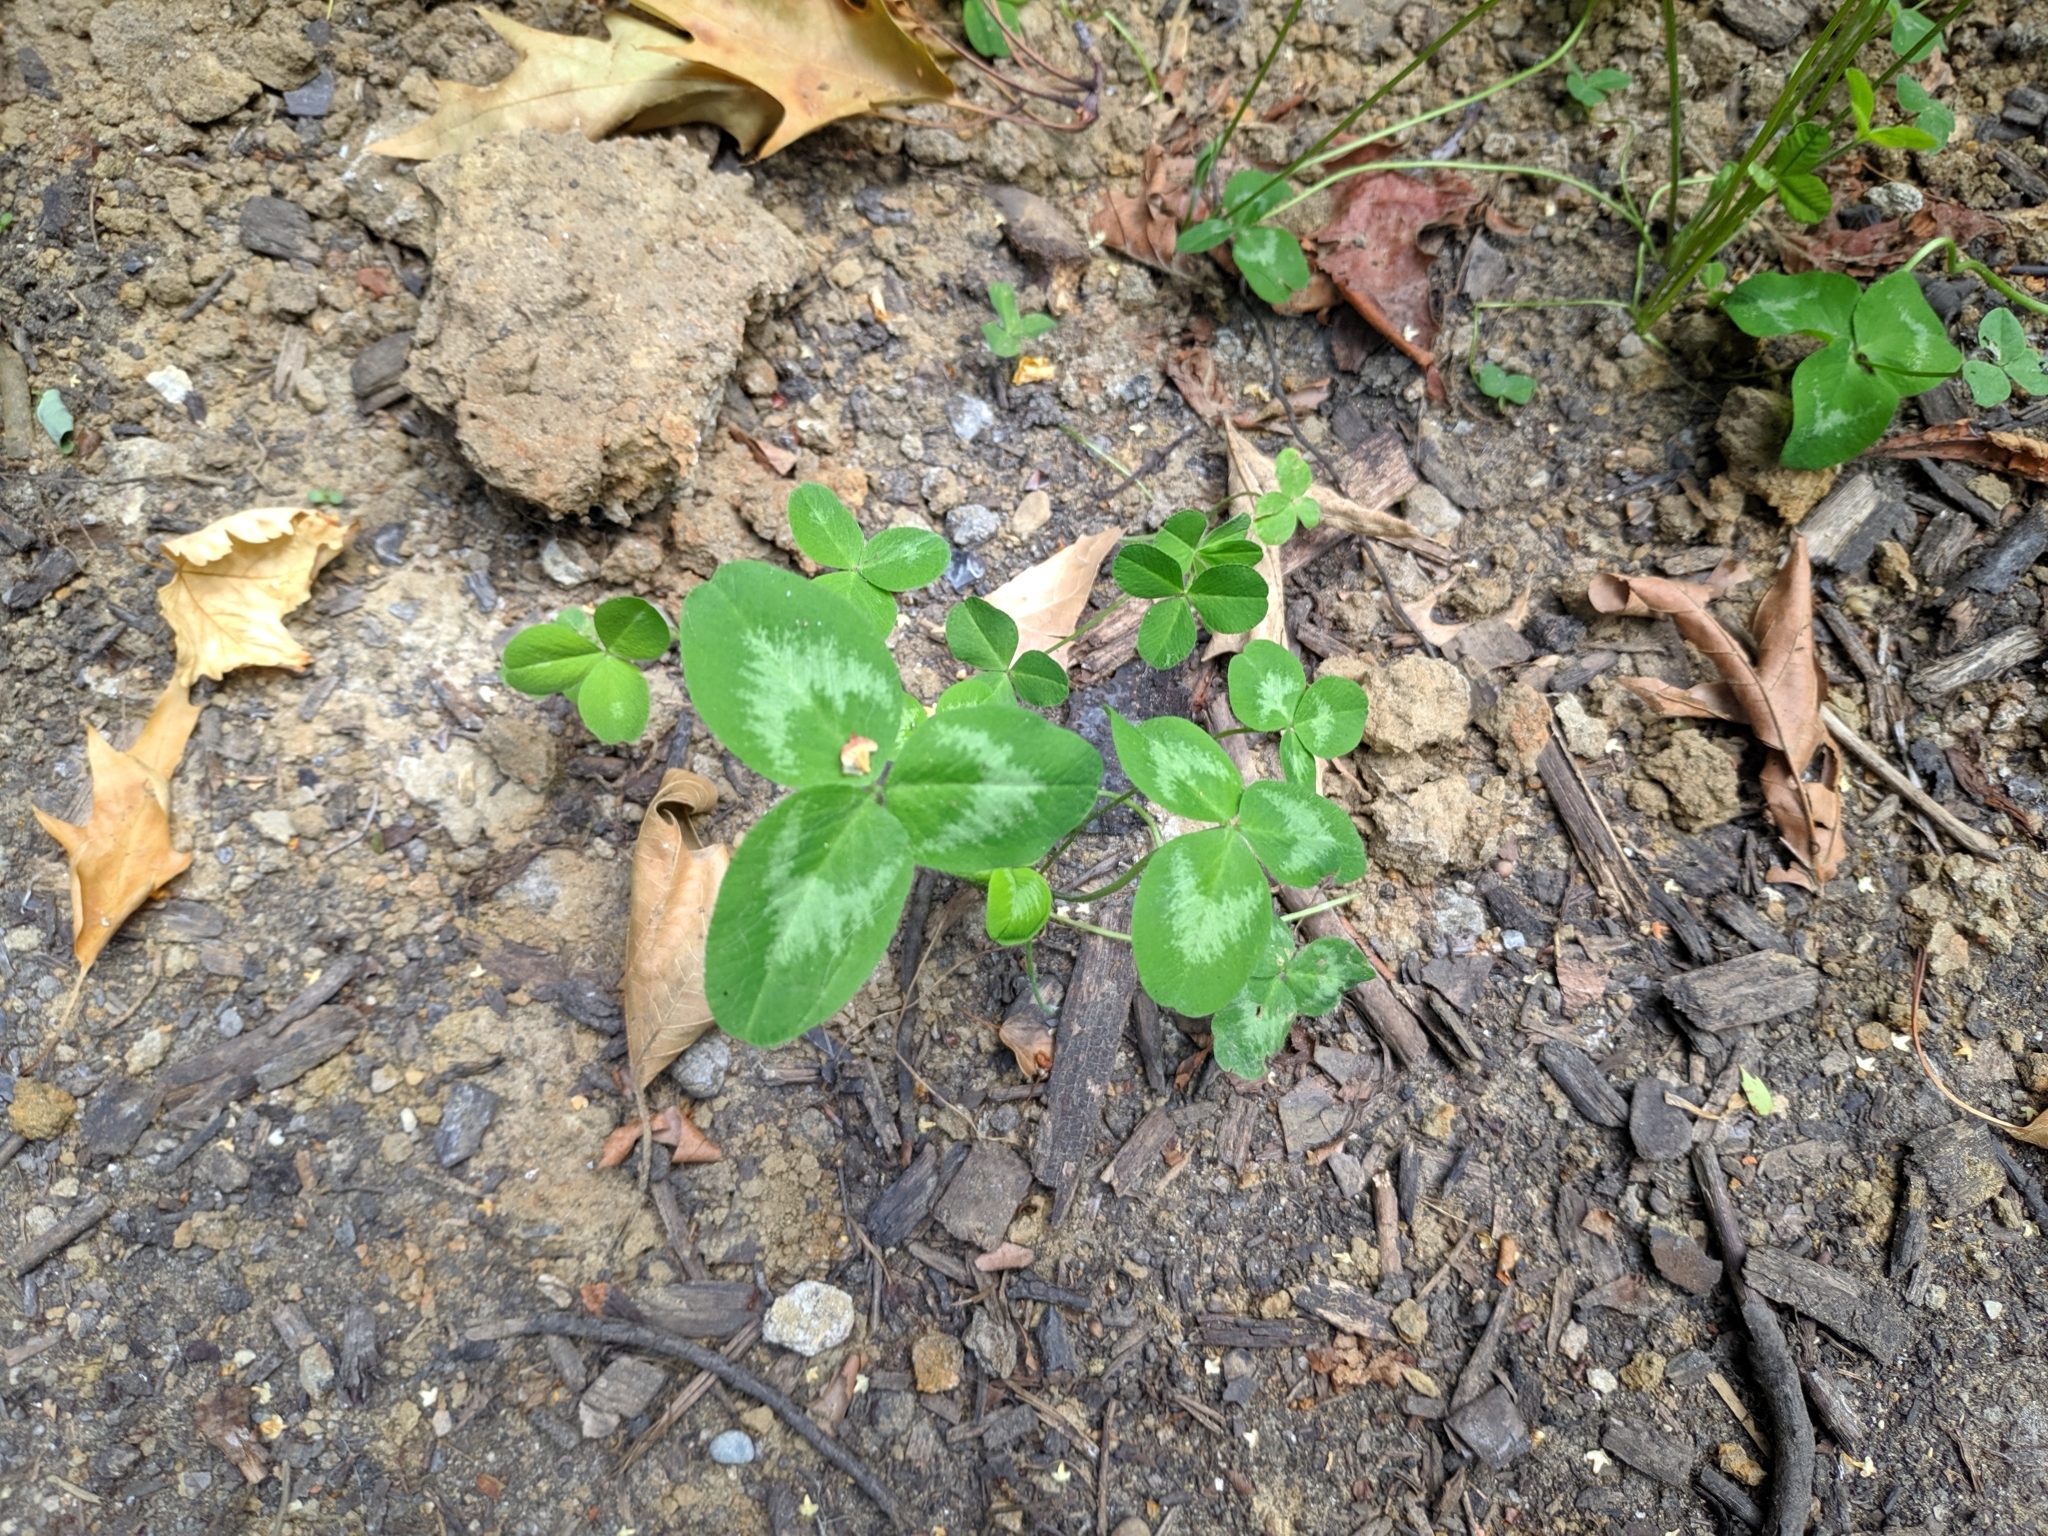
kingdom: Plantae
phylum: Tracheophyta
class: Magnoliopsida
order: Fabales
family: Fabaceae
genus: Trifolium
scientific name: Trifolium pratense
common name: Red clover
